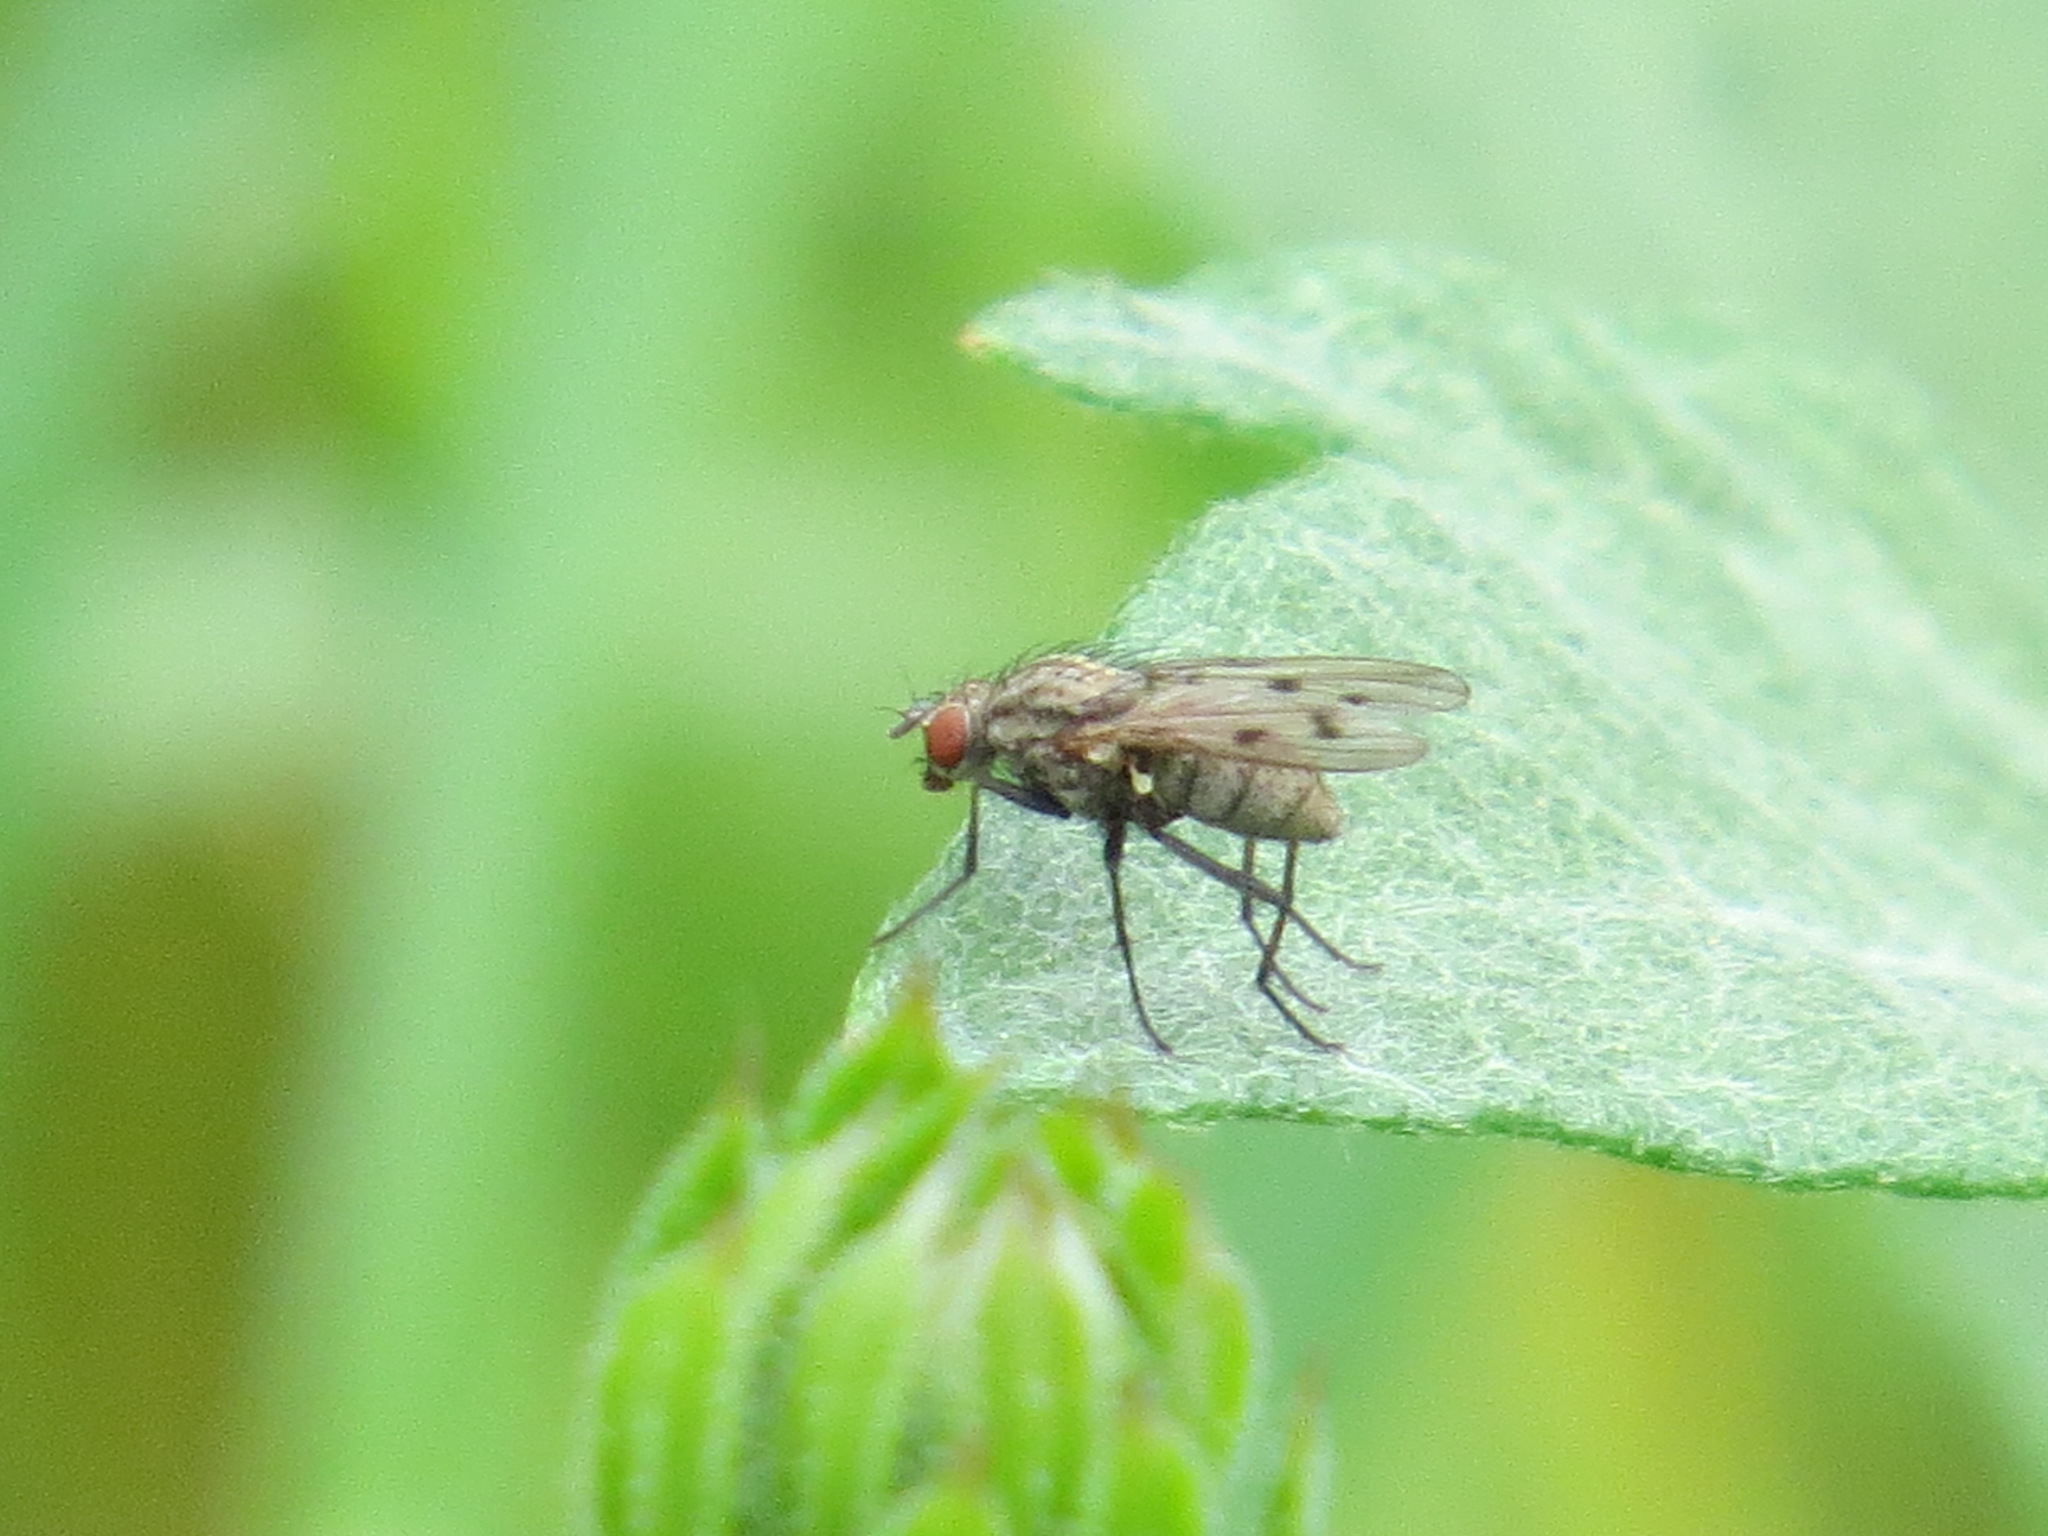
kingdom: Animalia
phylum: Arthropoda
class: Insecta
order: Diptera
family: Anthomyiidae
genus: Anthomyia
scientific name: Anthomyia ochripes
